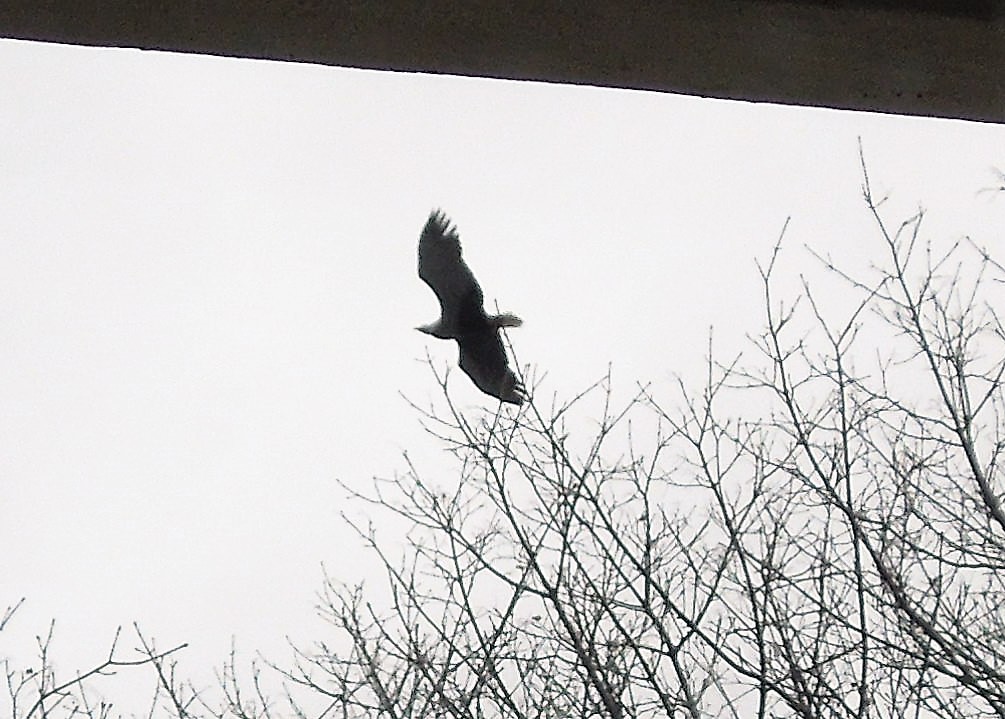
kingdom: Animalia
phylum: Chordata
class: Aves
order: Accipitriformes
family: Accipitridae
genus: Haliaeetus
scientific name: Haliaeetus leucocephalus
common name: Bald eagle
